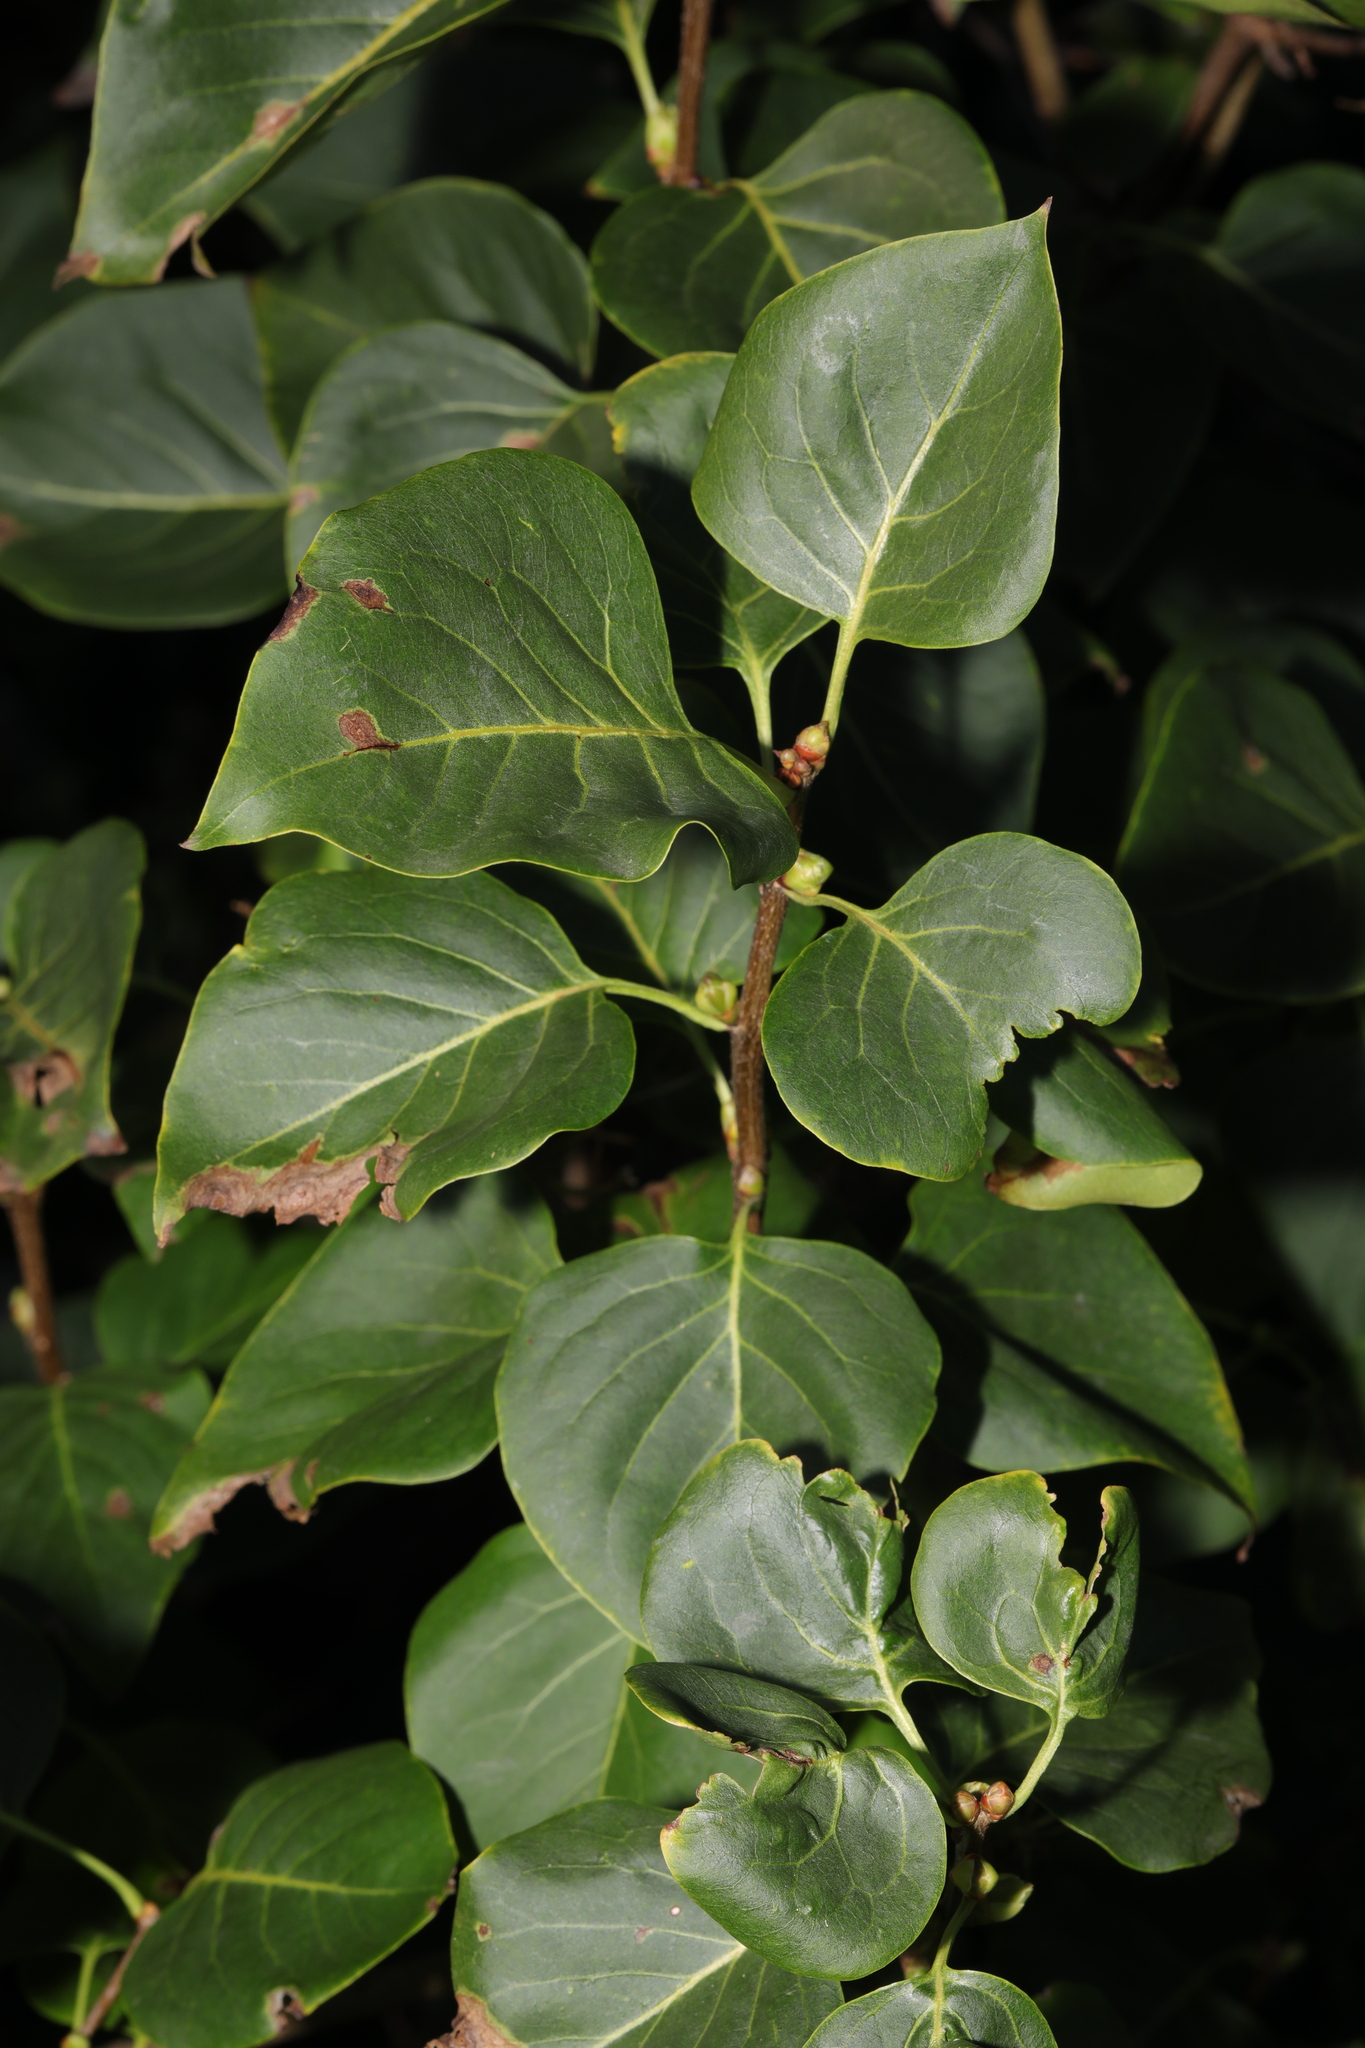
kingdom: Plantae
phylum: Tracheophyta
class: Magnoliopsida
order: Lamiales
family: Oleaceae
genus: Syringa
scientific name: Syringa vulgaris
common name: Common lilac
